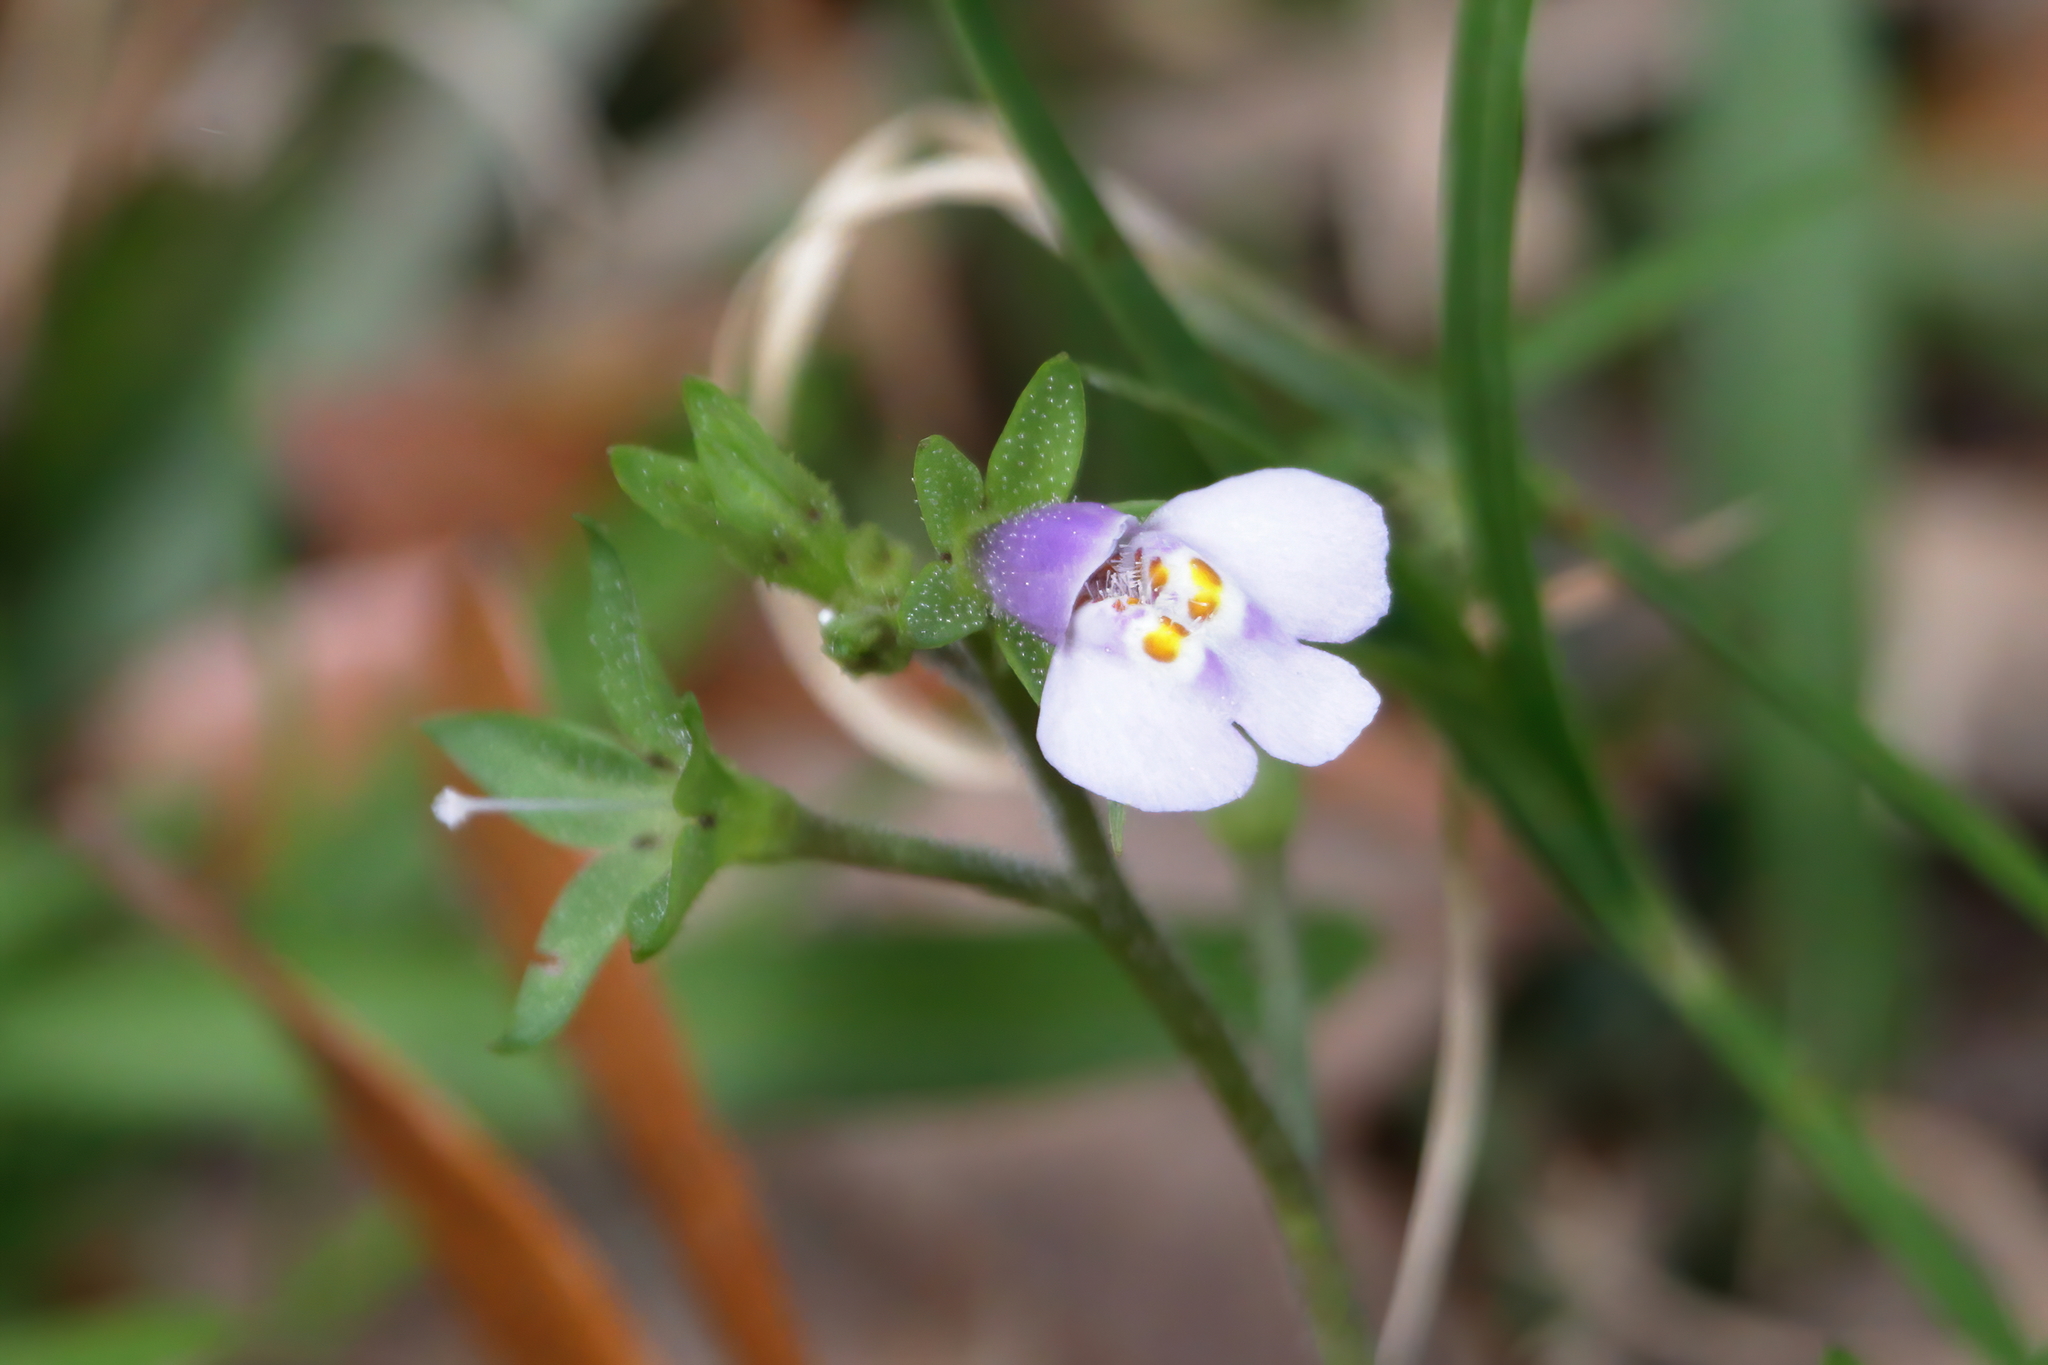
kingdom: Plantae
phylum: Tracheophyta
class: Magnoliopsida
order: Lamiales
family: Mazaceae
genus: Mazus
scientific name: Mazus pumilus
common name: Japanese mazus
